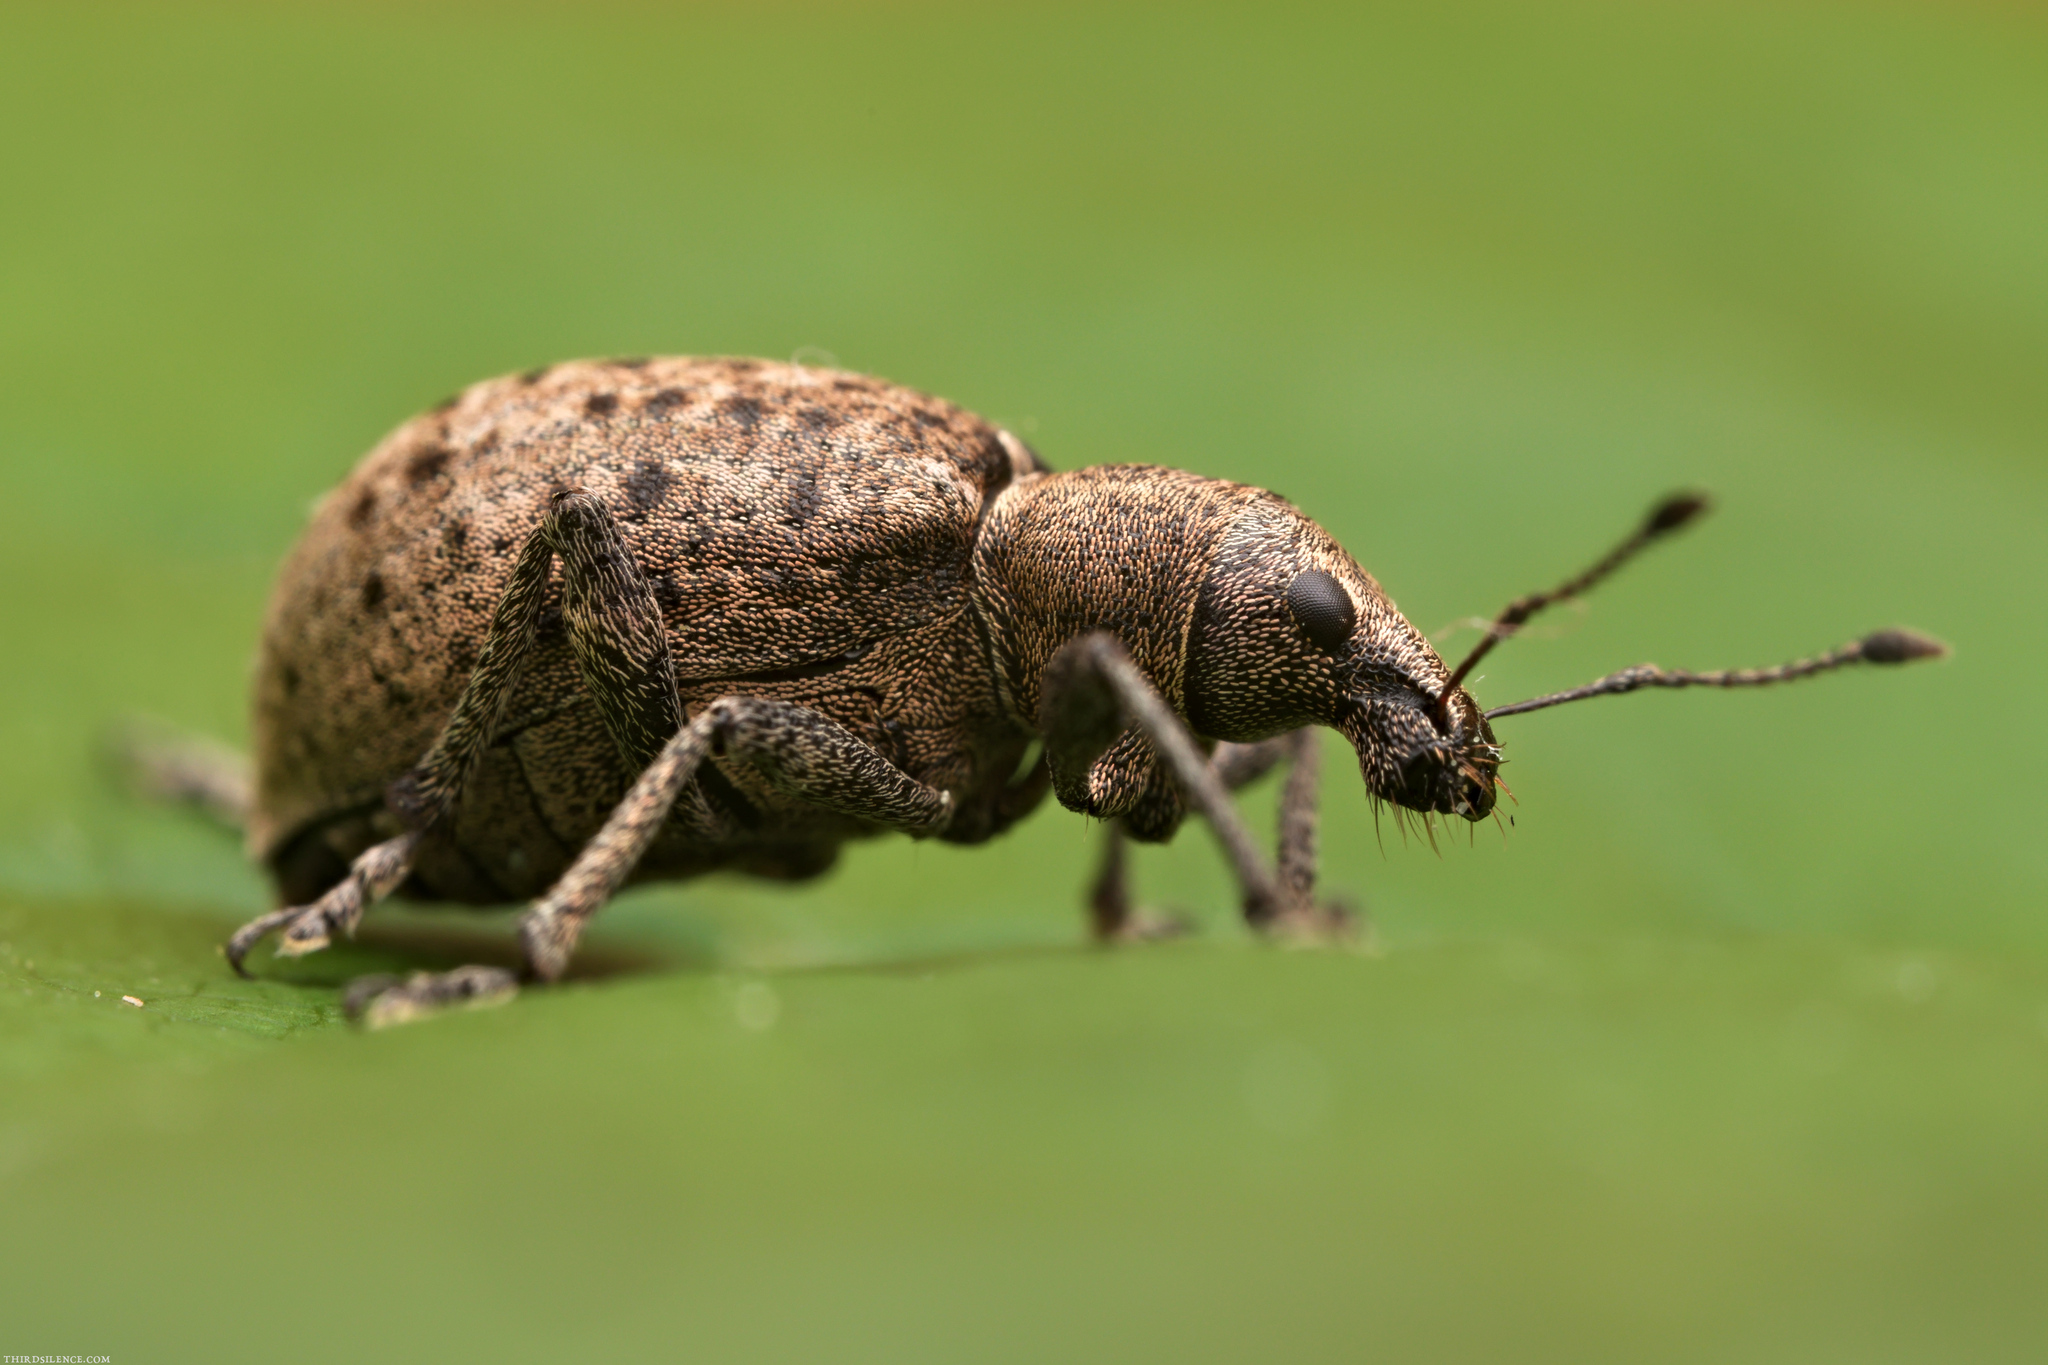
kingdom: Animalia
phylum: Arthropoda
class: Insecta
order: Coleoptera
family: Curculionidae
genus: Liophloeus
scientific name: Liophloeus tessulatus
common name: Weevil
